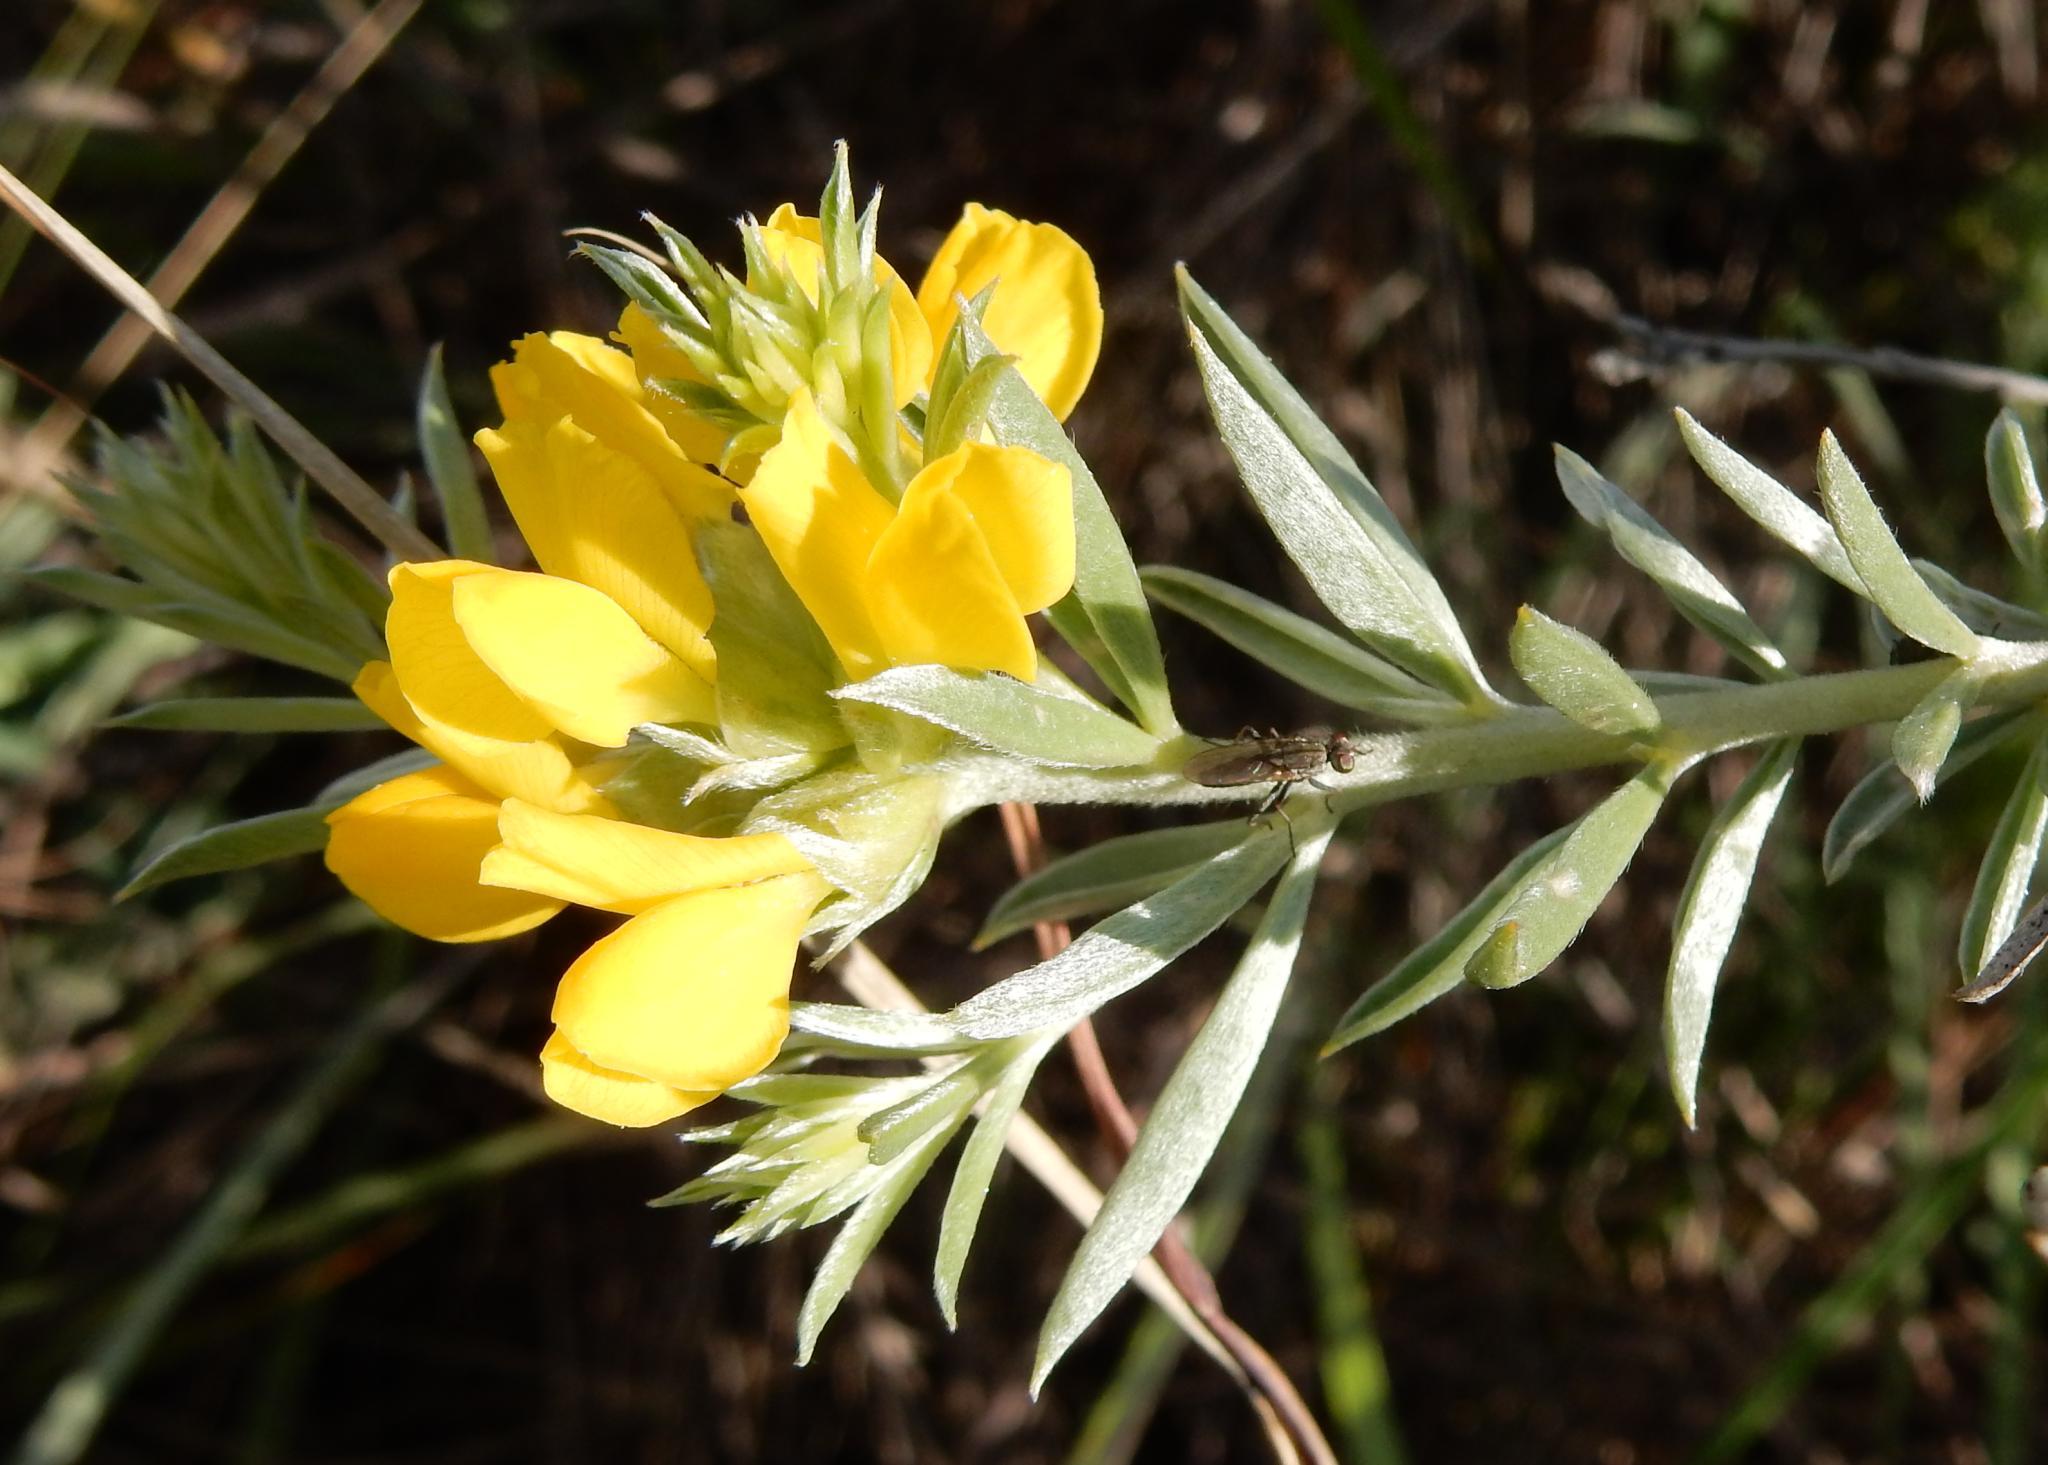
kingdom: Plantae
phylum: Tracheophyta
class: Magnoliopsida
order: Fabales
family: Fabaceae
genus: Pearsonia
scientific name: Pearsonia sessilifolia
